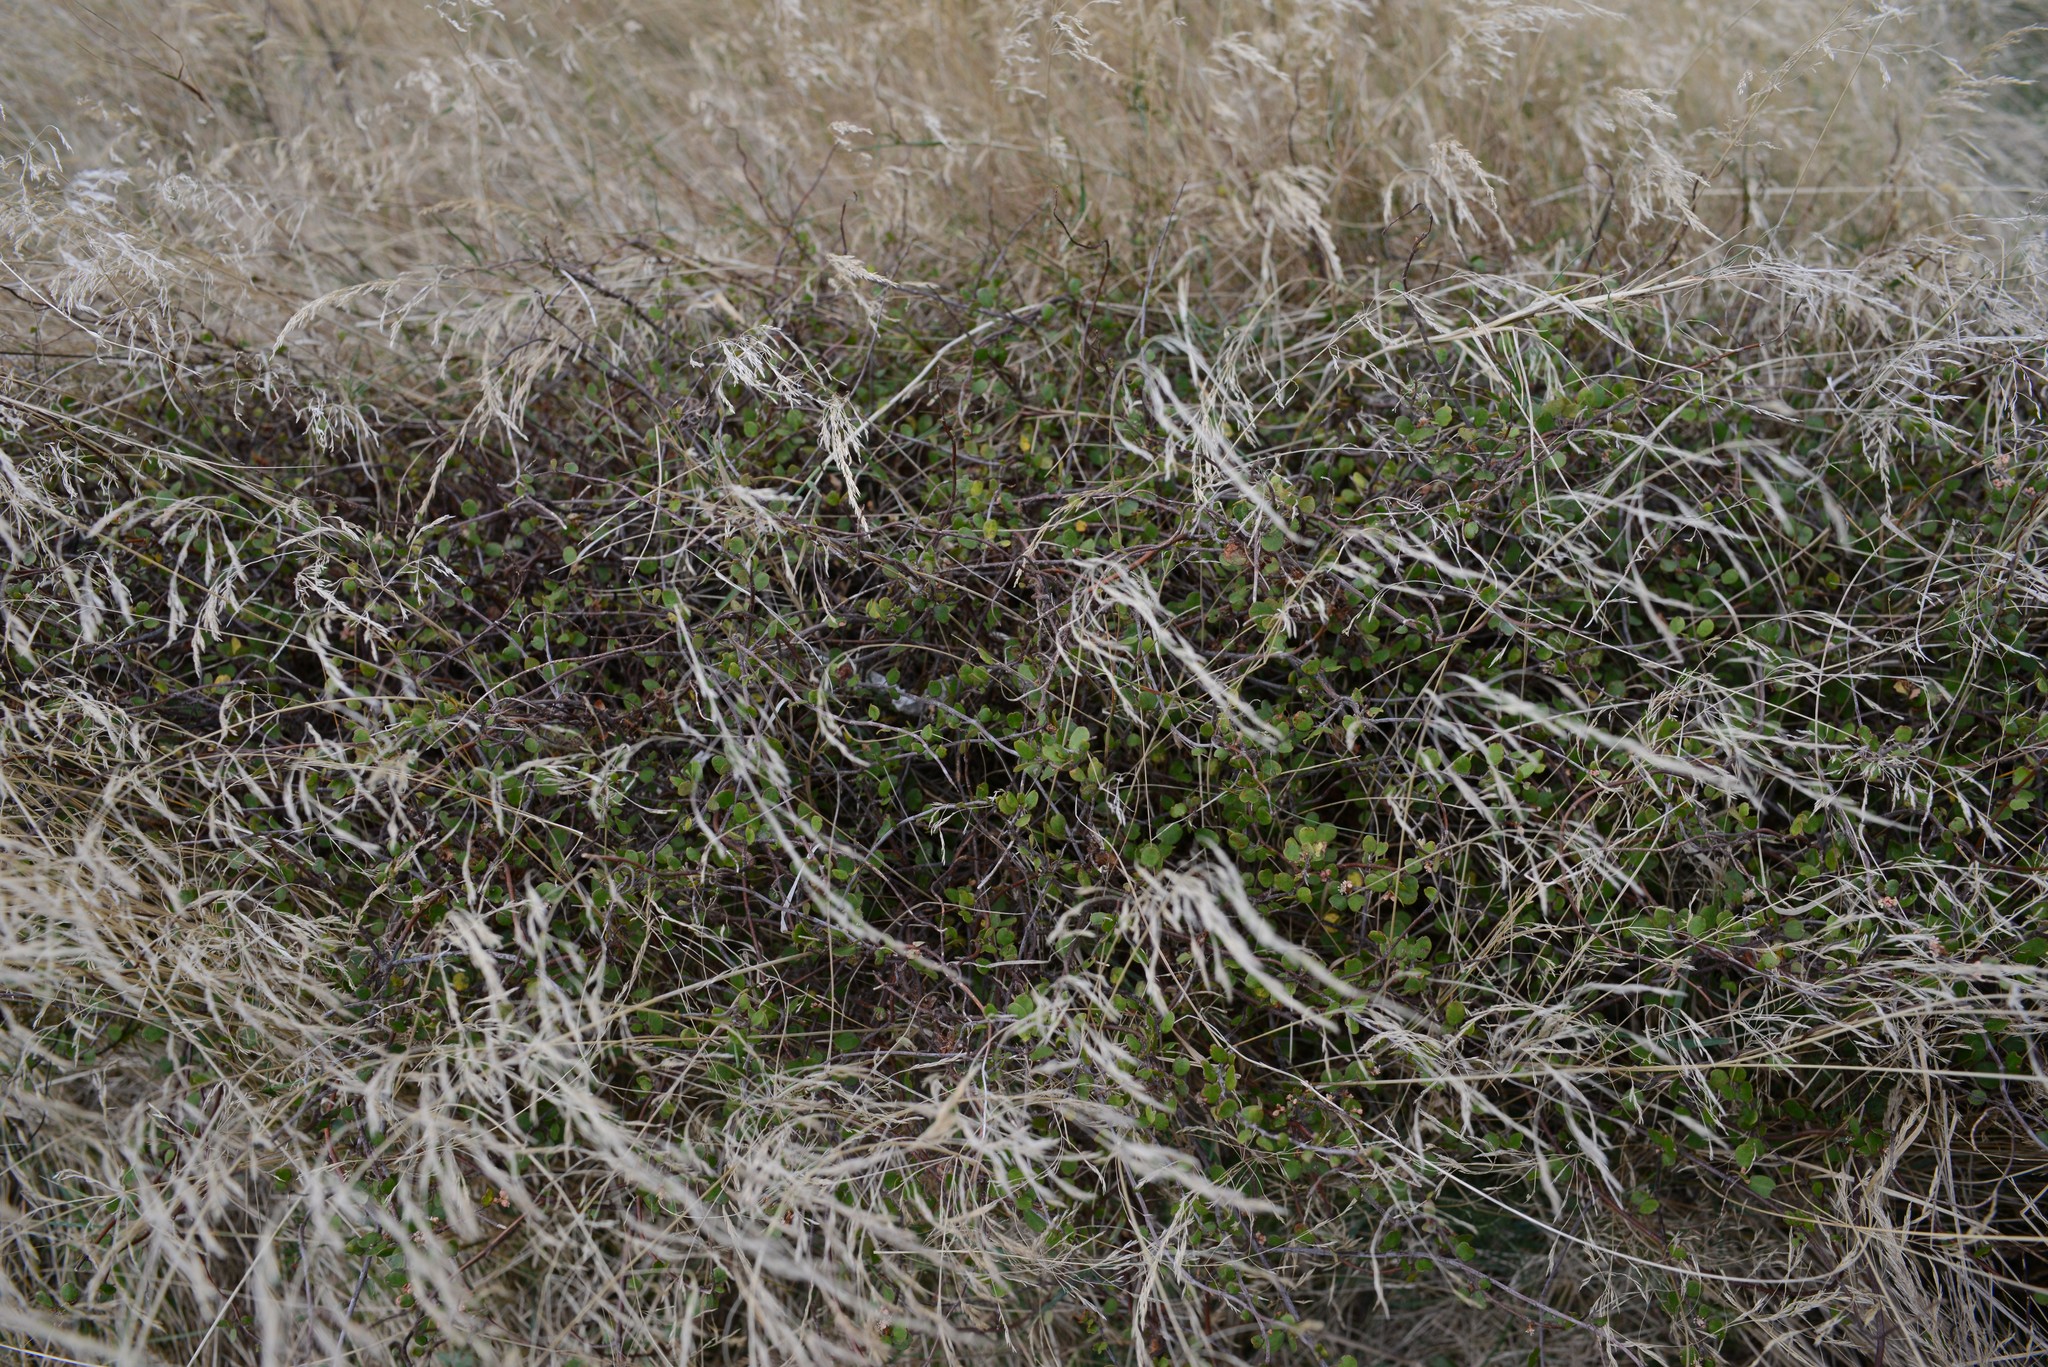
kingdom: Plantae
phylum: Tracheophyta
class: Magnoliopsida
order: Caryophyllales
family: Polygonaceae
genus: Muehlenbeckia
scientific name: Muehlenbeckia complexa
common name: Wireplant
